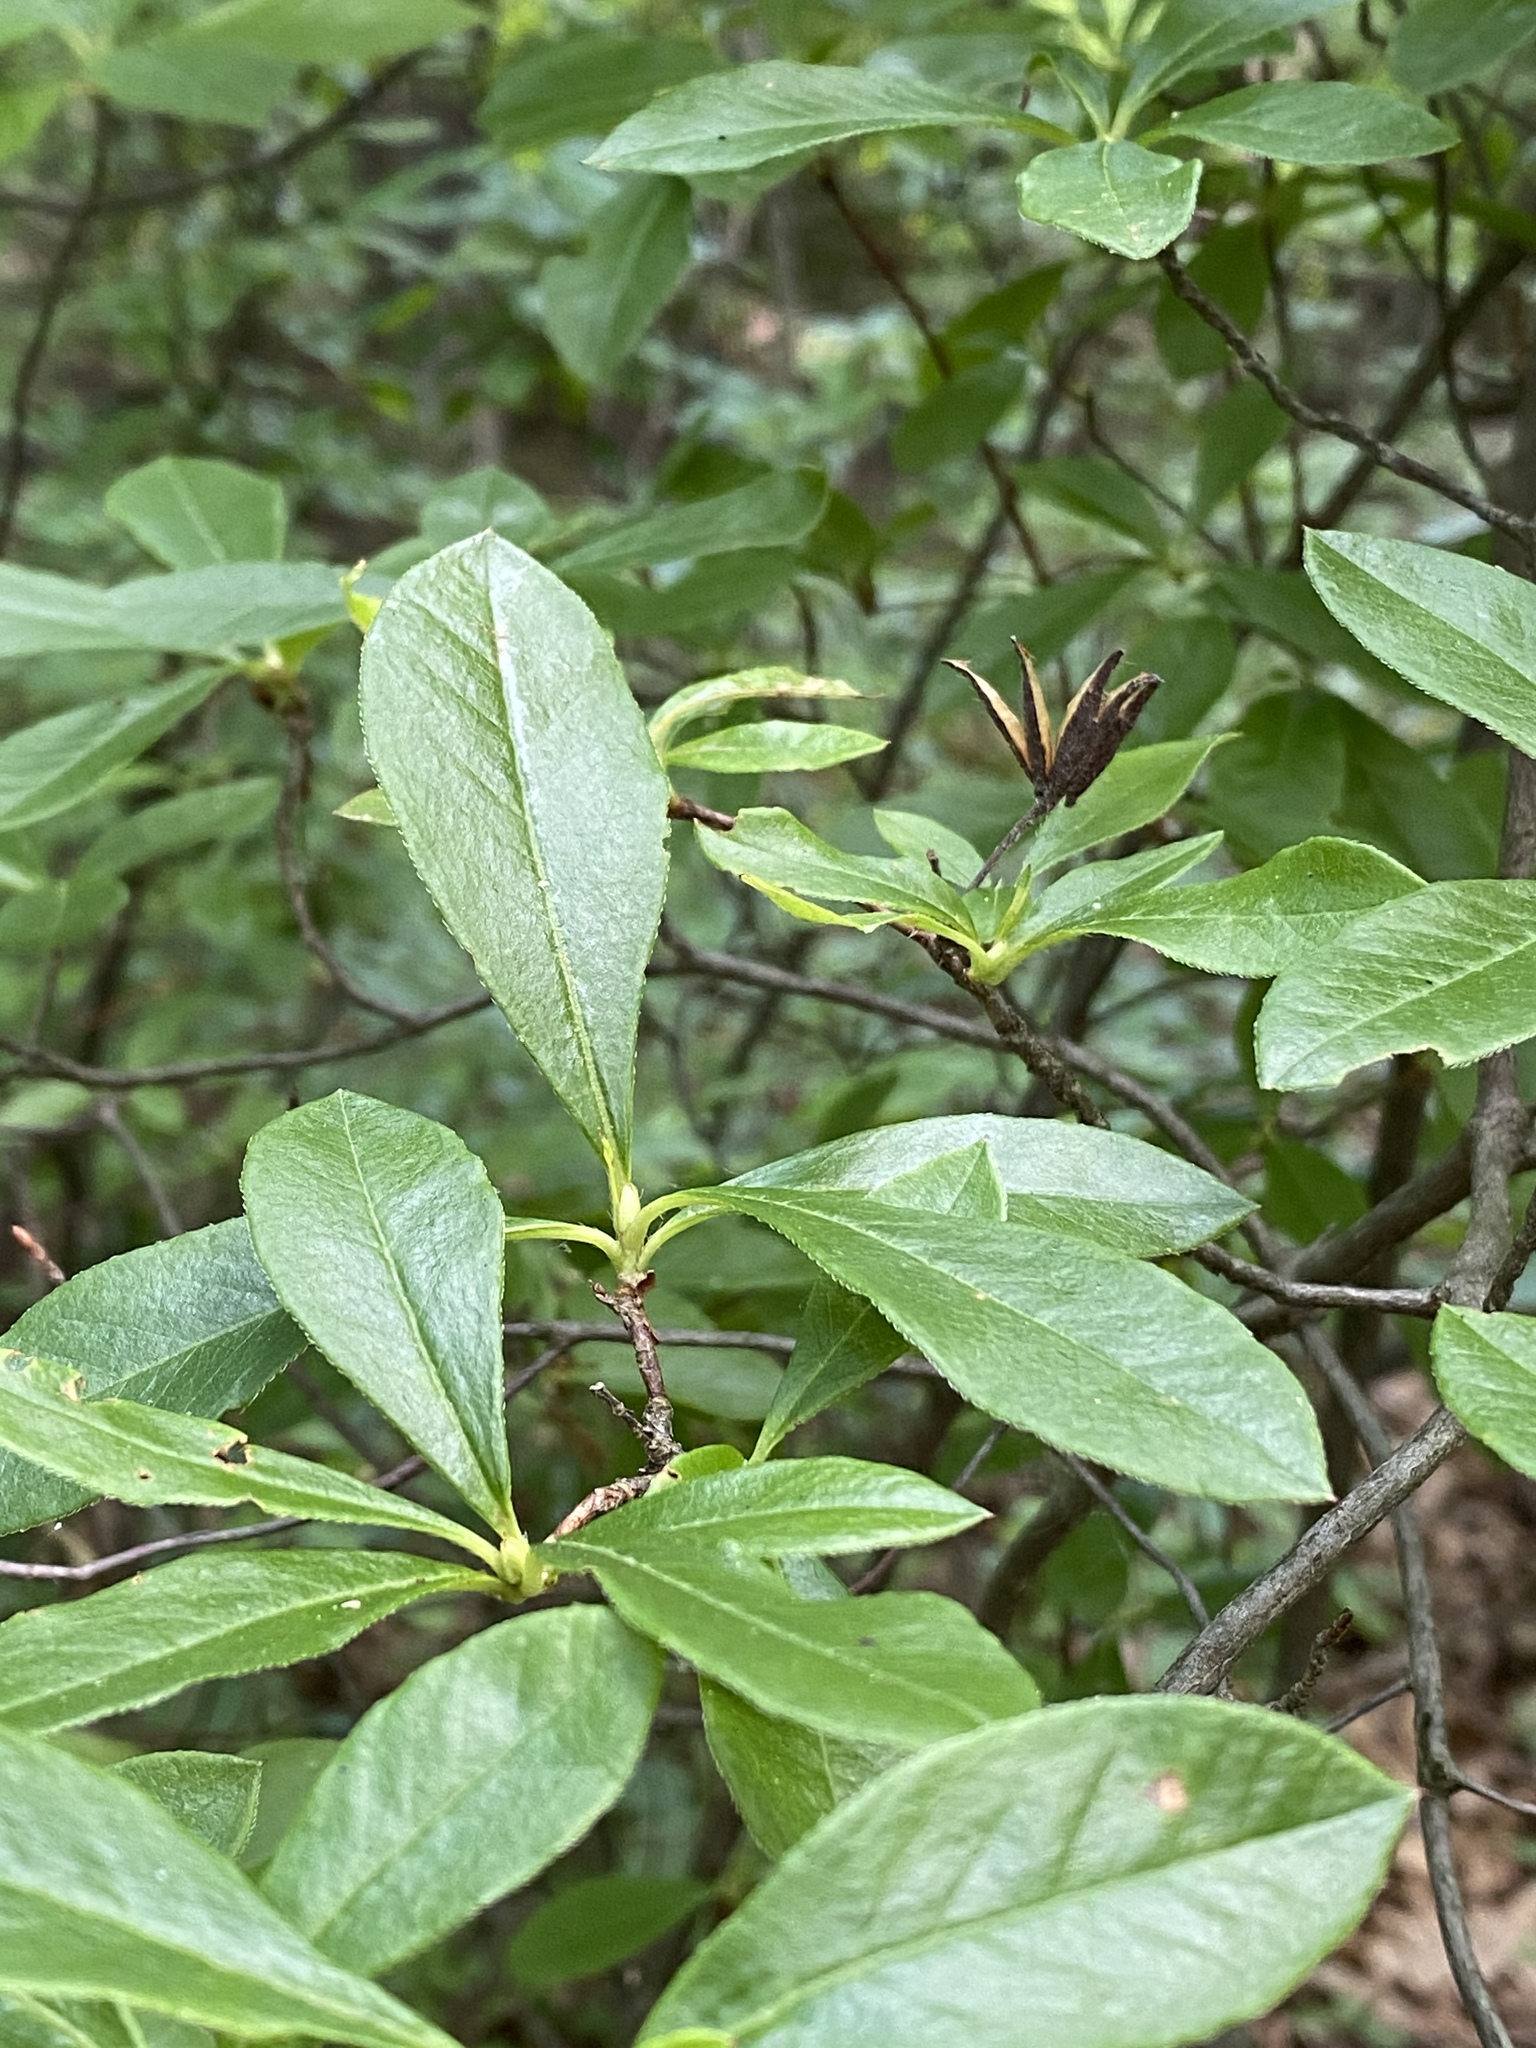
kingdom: Plantae
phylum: Tracheophyta
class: Magnoliopsida
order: Ericales
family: Ericaceae
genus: Rhododendron
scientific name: Rhododendron viscosum
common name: Clammy azalea
